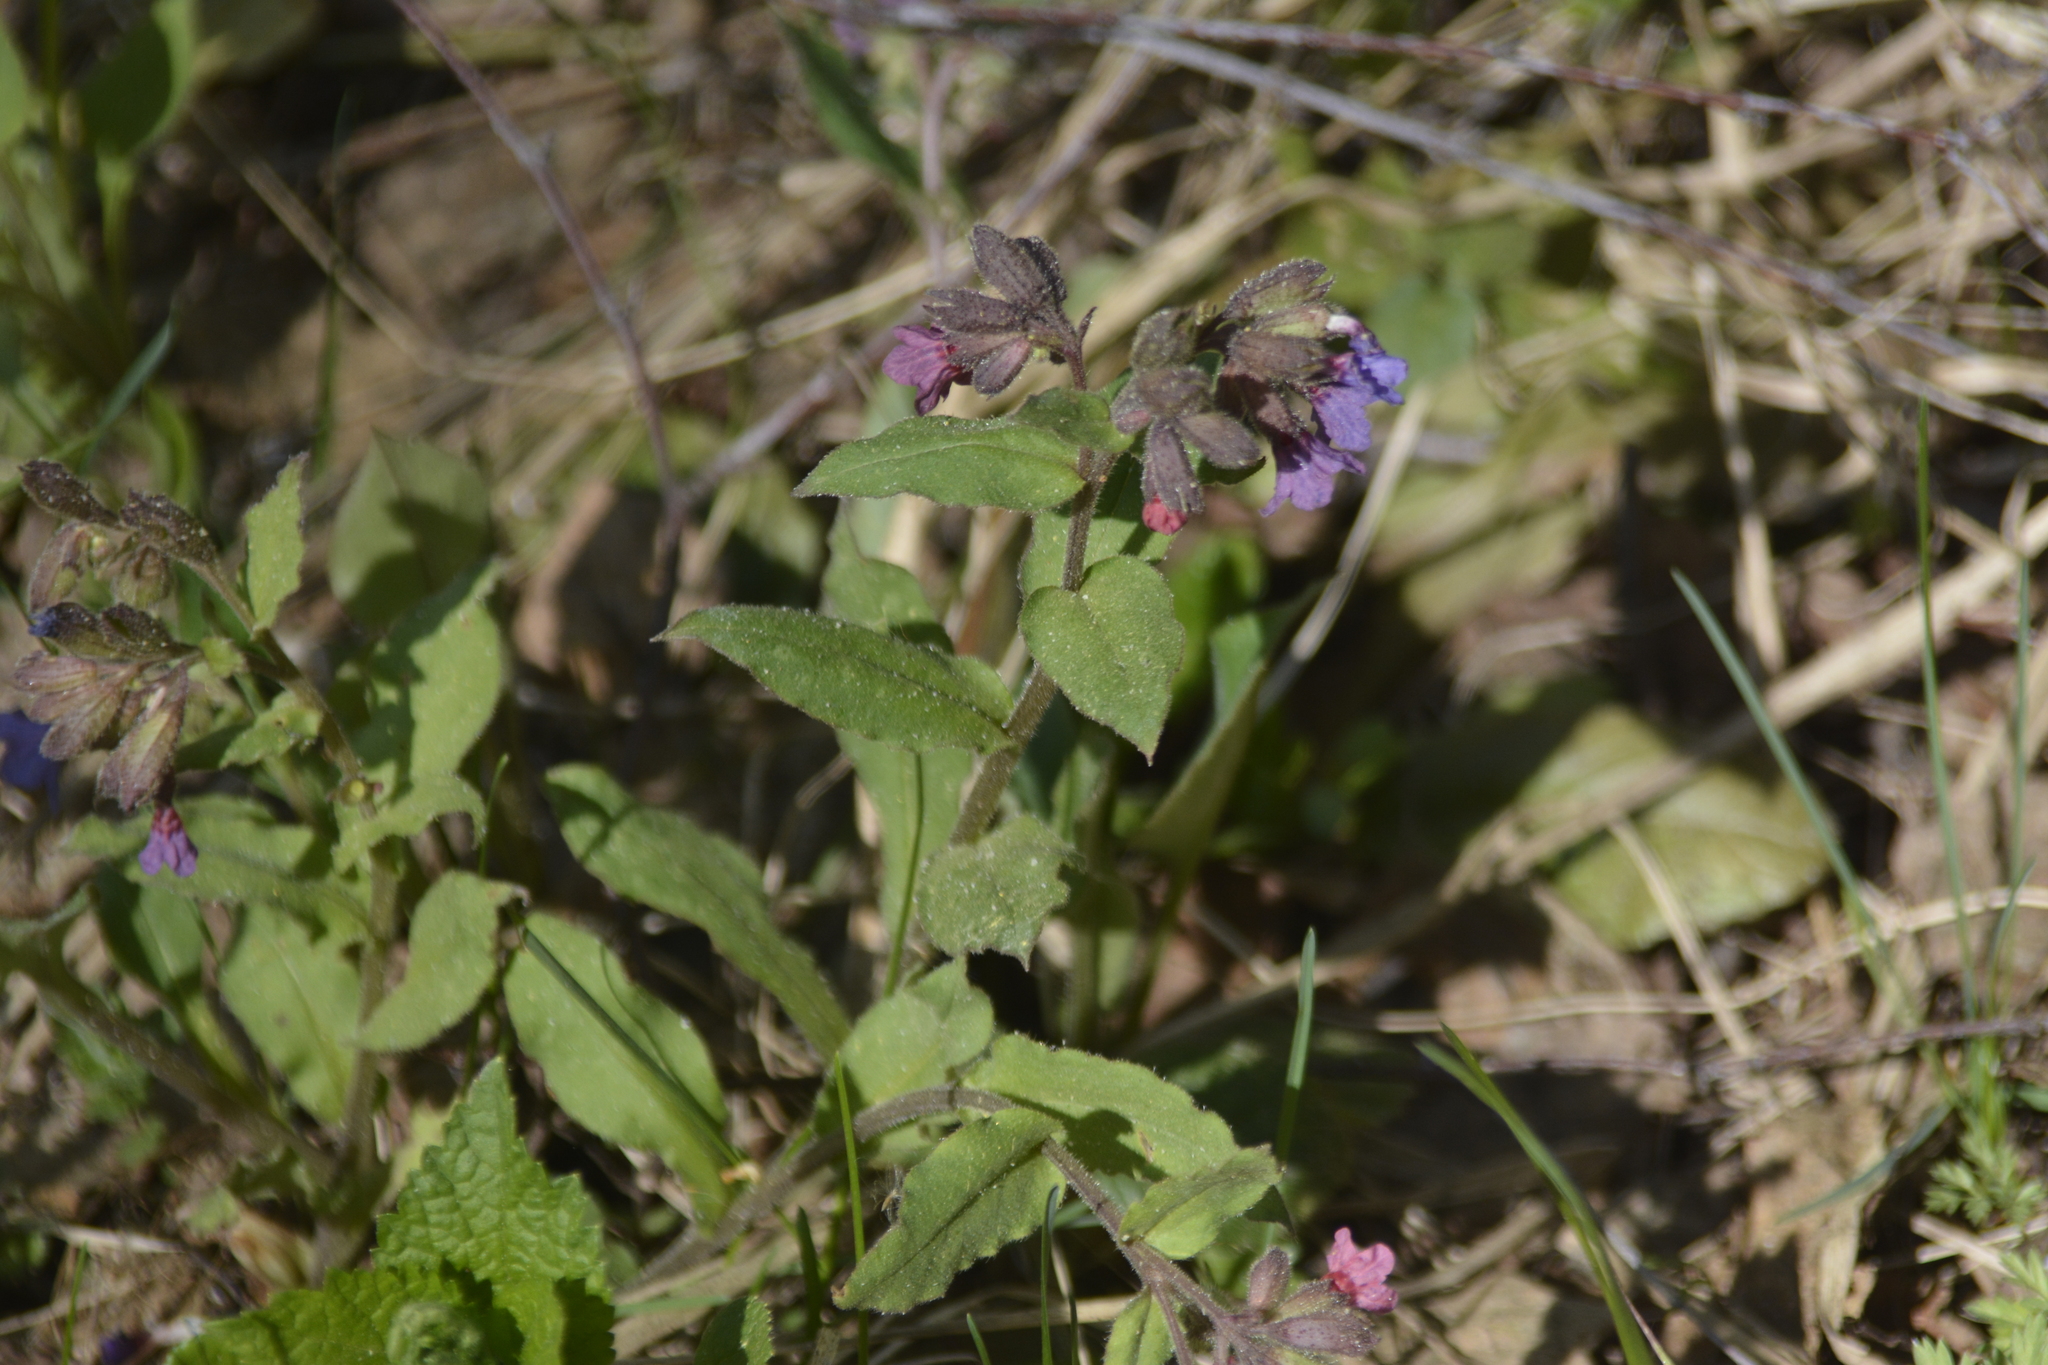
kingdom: Plantae
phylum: Tracheophyta
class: Magnoliopsida
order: Boraginales
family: Boraginaceae
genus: Pulmonaria
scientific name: Pulmonaria obscura
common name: Suffolk lungwort
